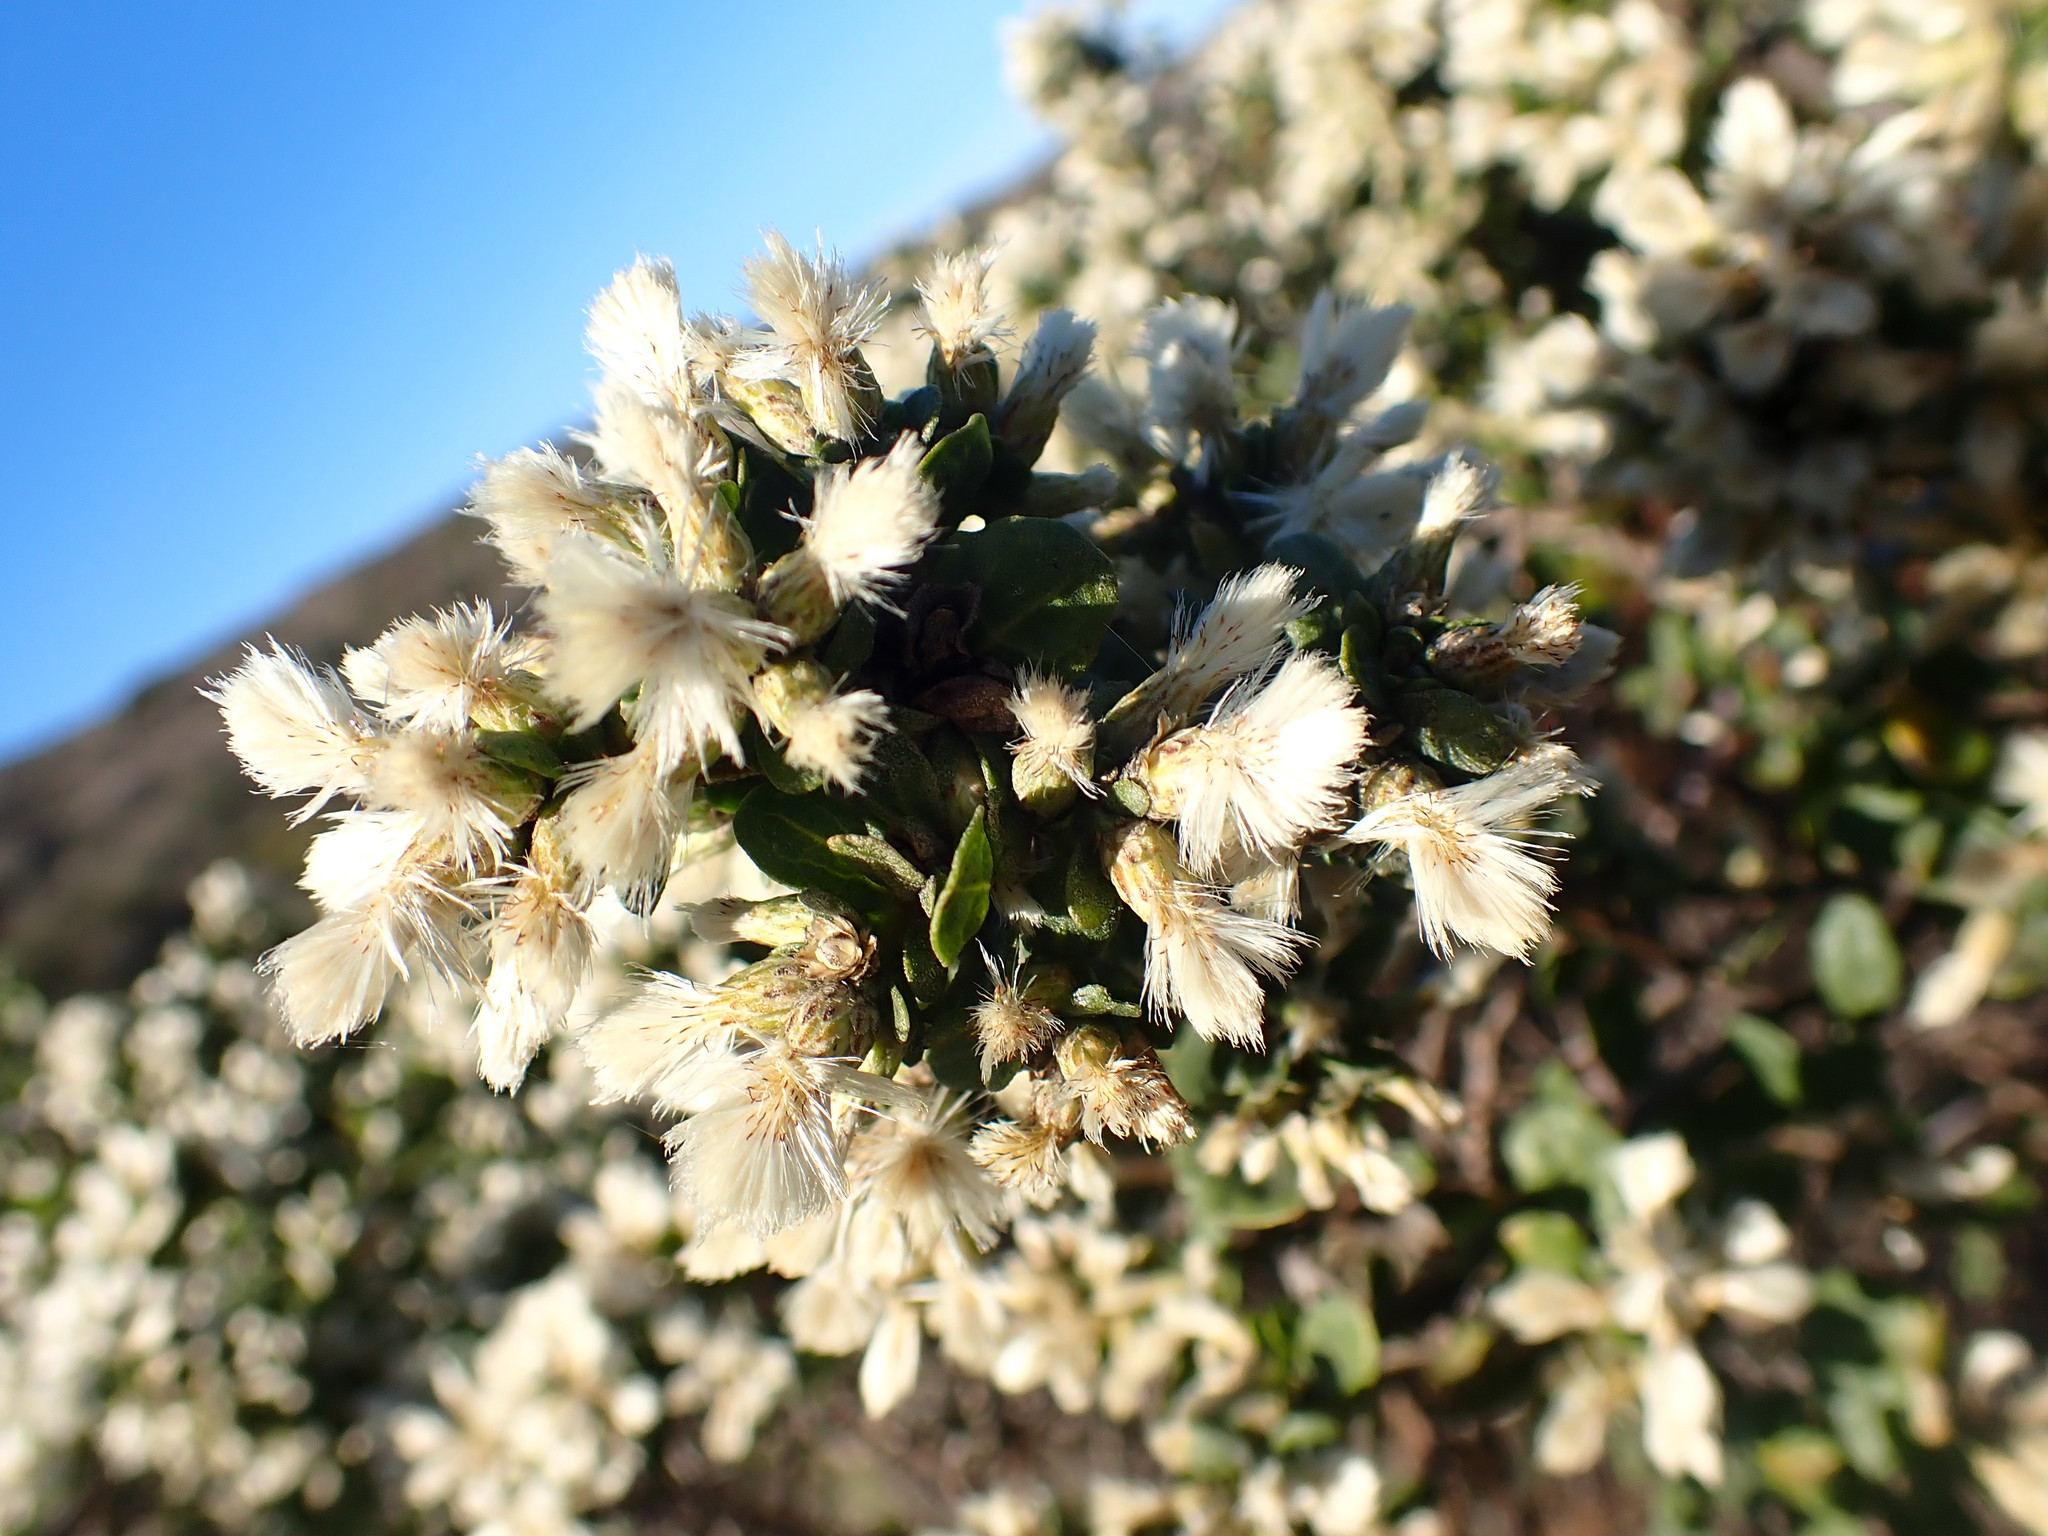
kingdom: Plantae
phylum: Tracheophyta
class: Magnoliopsida
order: Asterales
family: Asteraceae
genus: Baccharis
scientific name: Baccharis pilularis
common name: Coyotebrush
